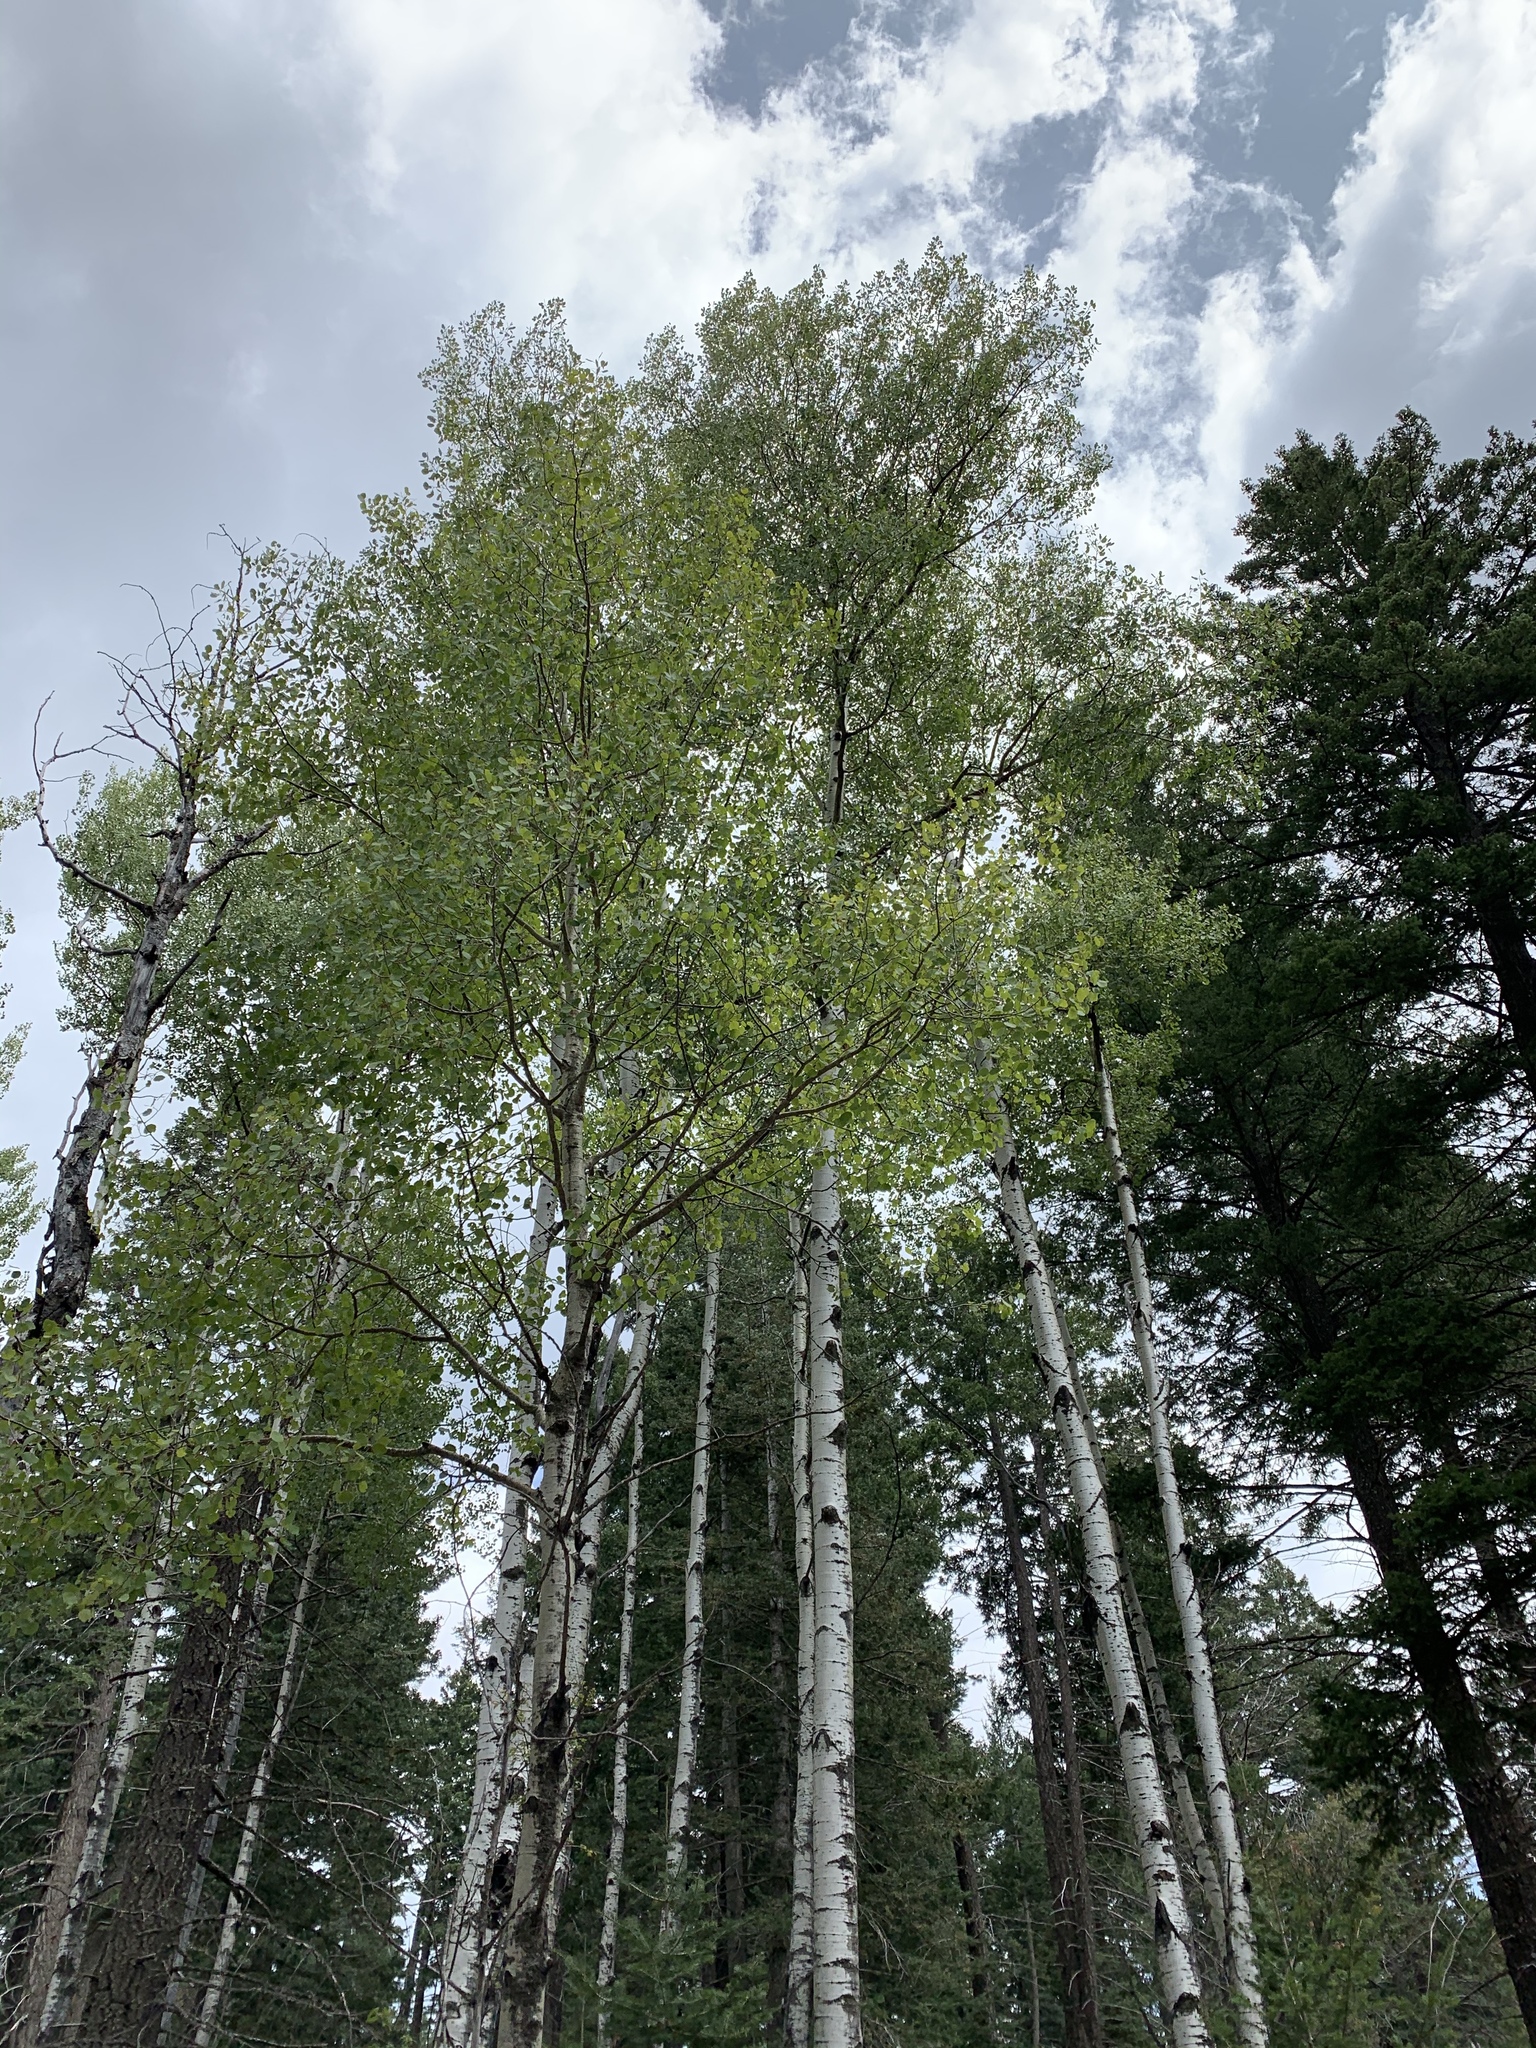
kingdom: Plantae
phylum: Tracheophyta
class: Magnoliopsida
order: Malpighiales
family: Salicaceae
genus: Populus
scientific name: Populus tremuloides
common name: Quaking aspen
